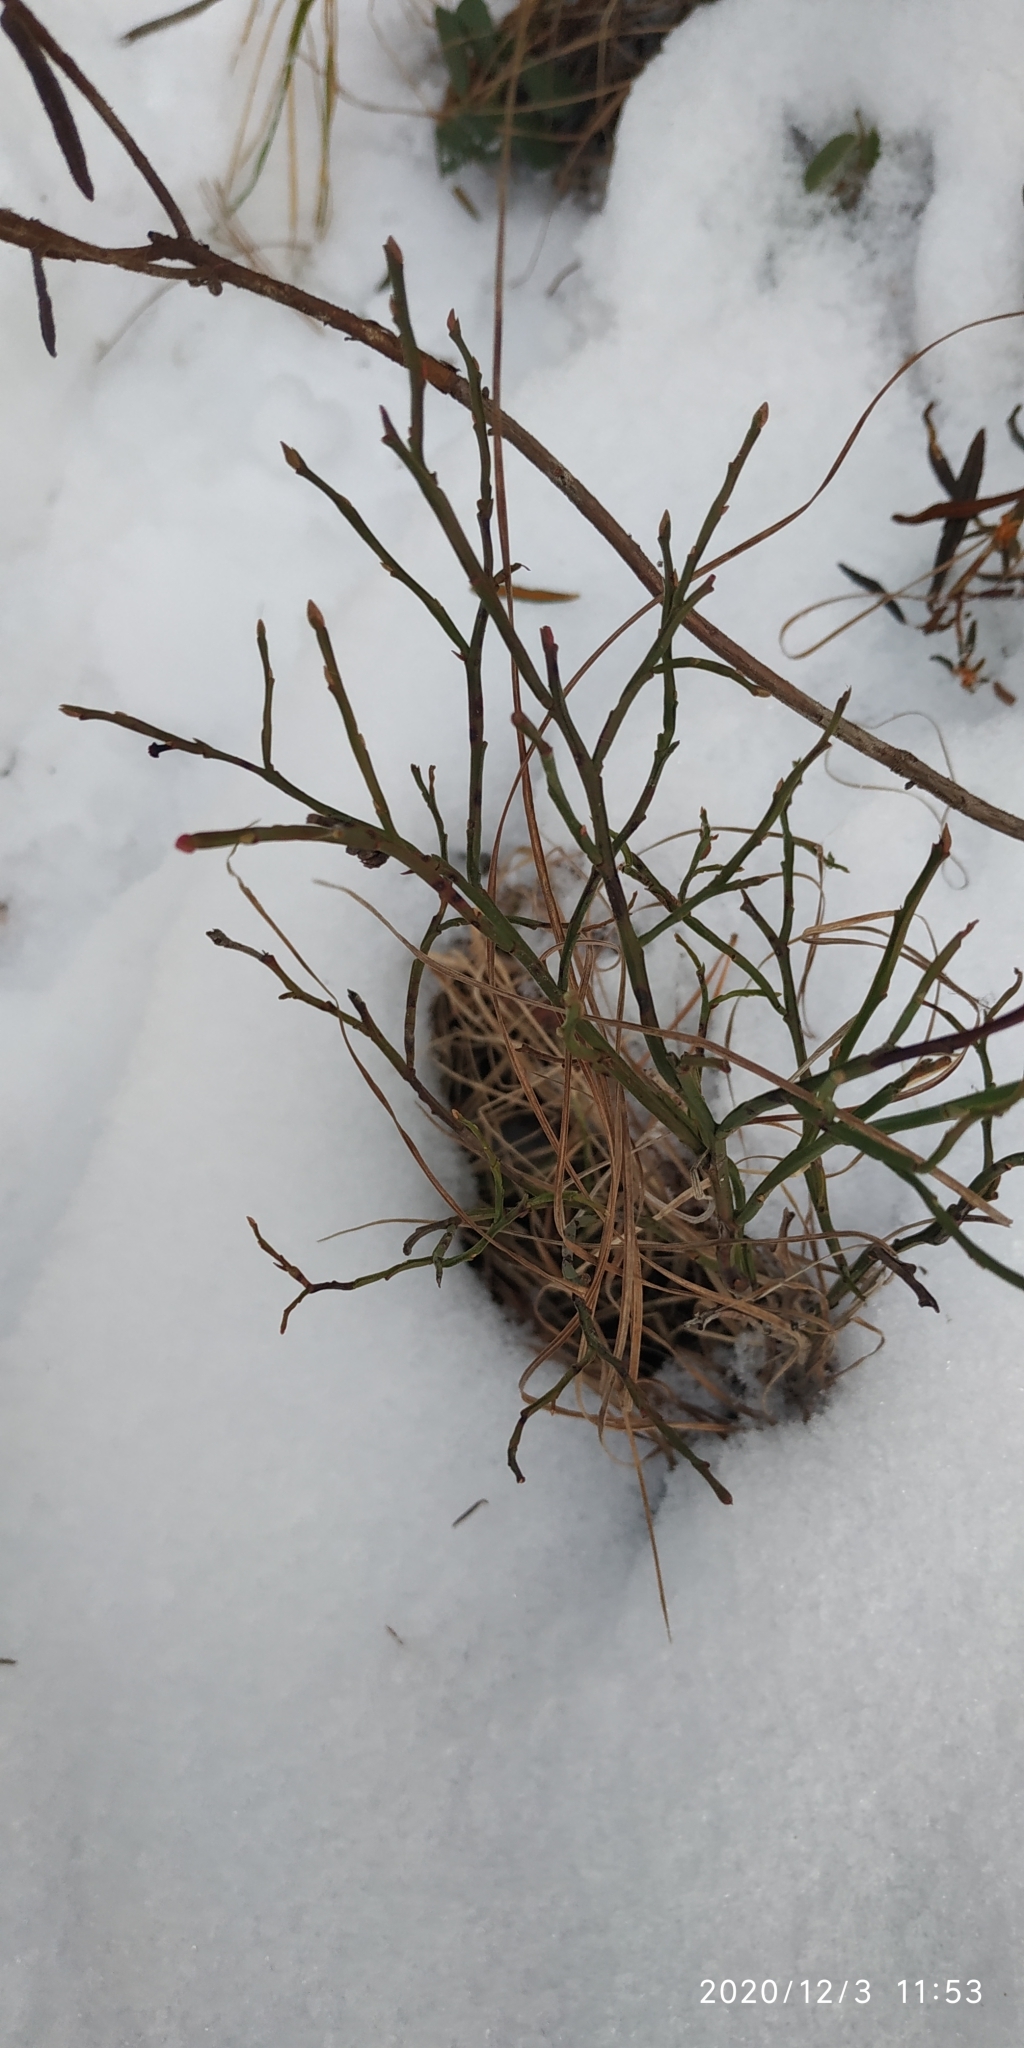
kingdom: Plantae
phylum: Tracheophyta
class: Magnoliopsida
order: Ericales
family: Ericaceae
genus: Vaccinium
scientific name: Vaccinium myrtillus
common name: Bilberry
